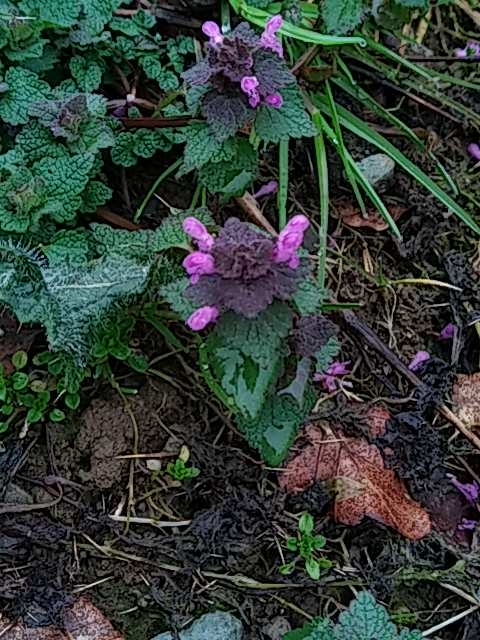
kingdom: Plantae
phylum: Tracheophyta
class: Magnoliopsida
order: Lamiales
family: Lamiaceae
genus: Lamium
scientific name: Lamium purpureum
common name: Red dead-nettle
